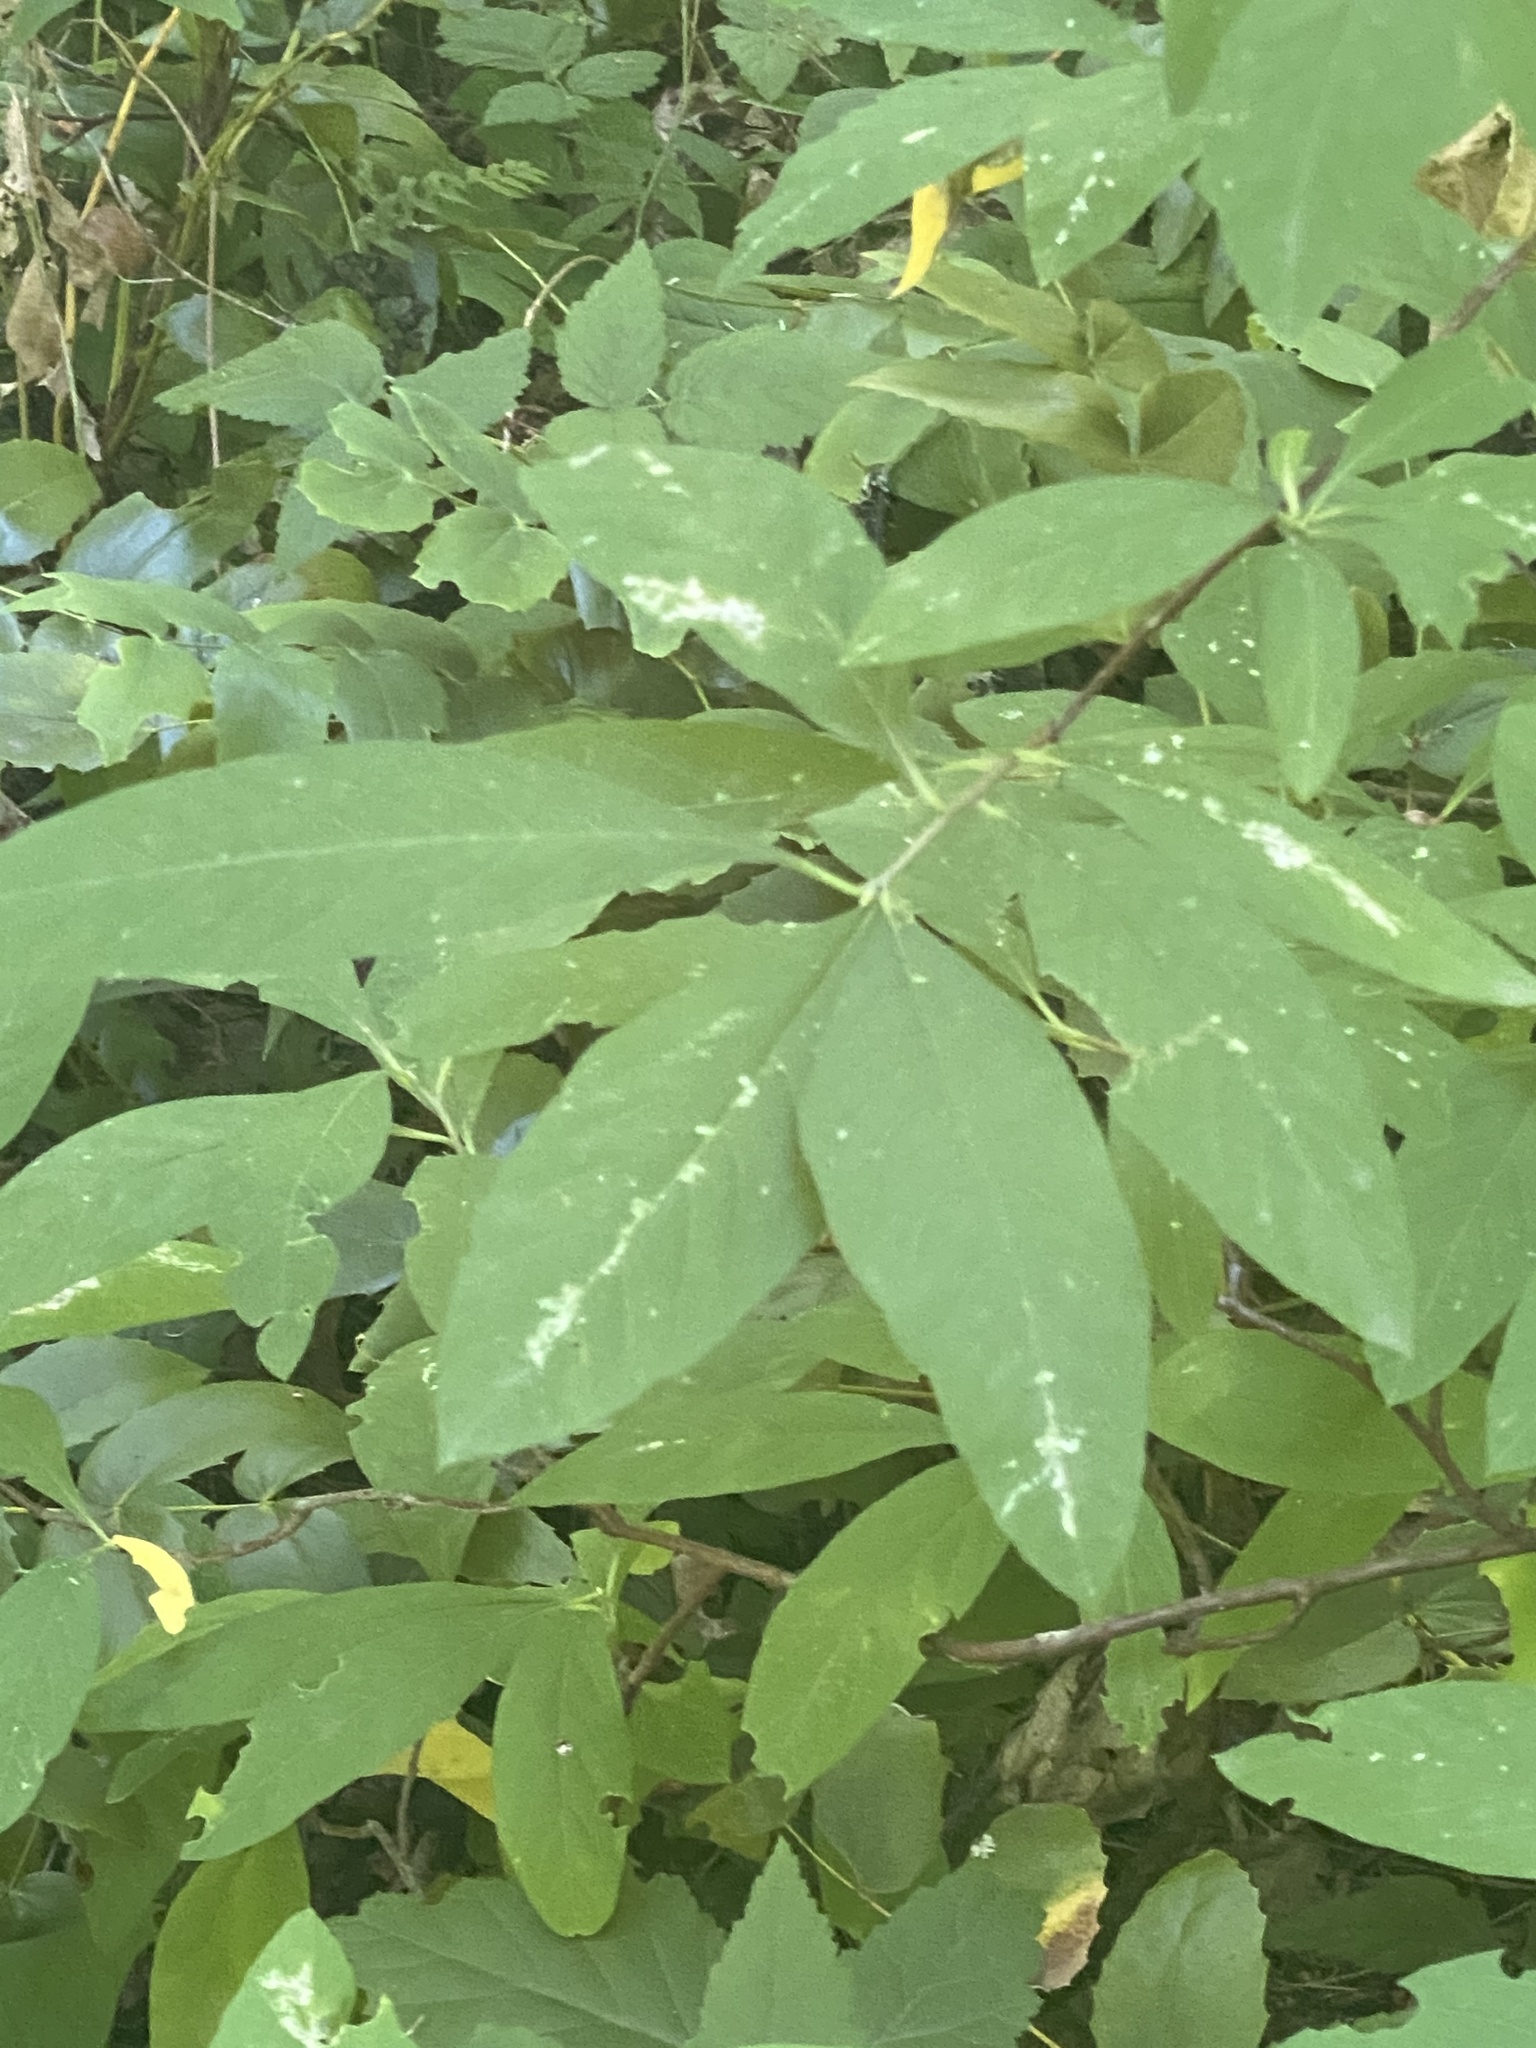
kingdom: Plantae
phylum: Tracheophyta
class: Magnoliopsida
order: Rosales
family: Rosaceae
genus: Oemleria
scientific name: Oemleria cerasiformis
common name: Osoberry
